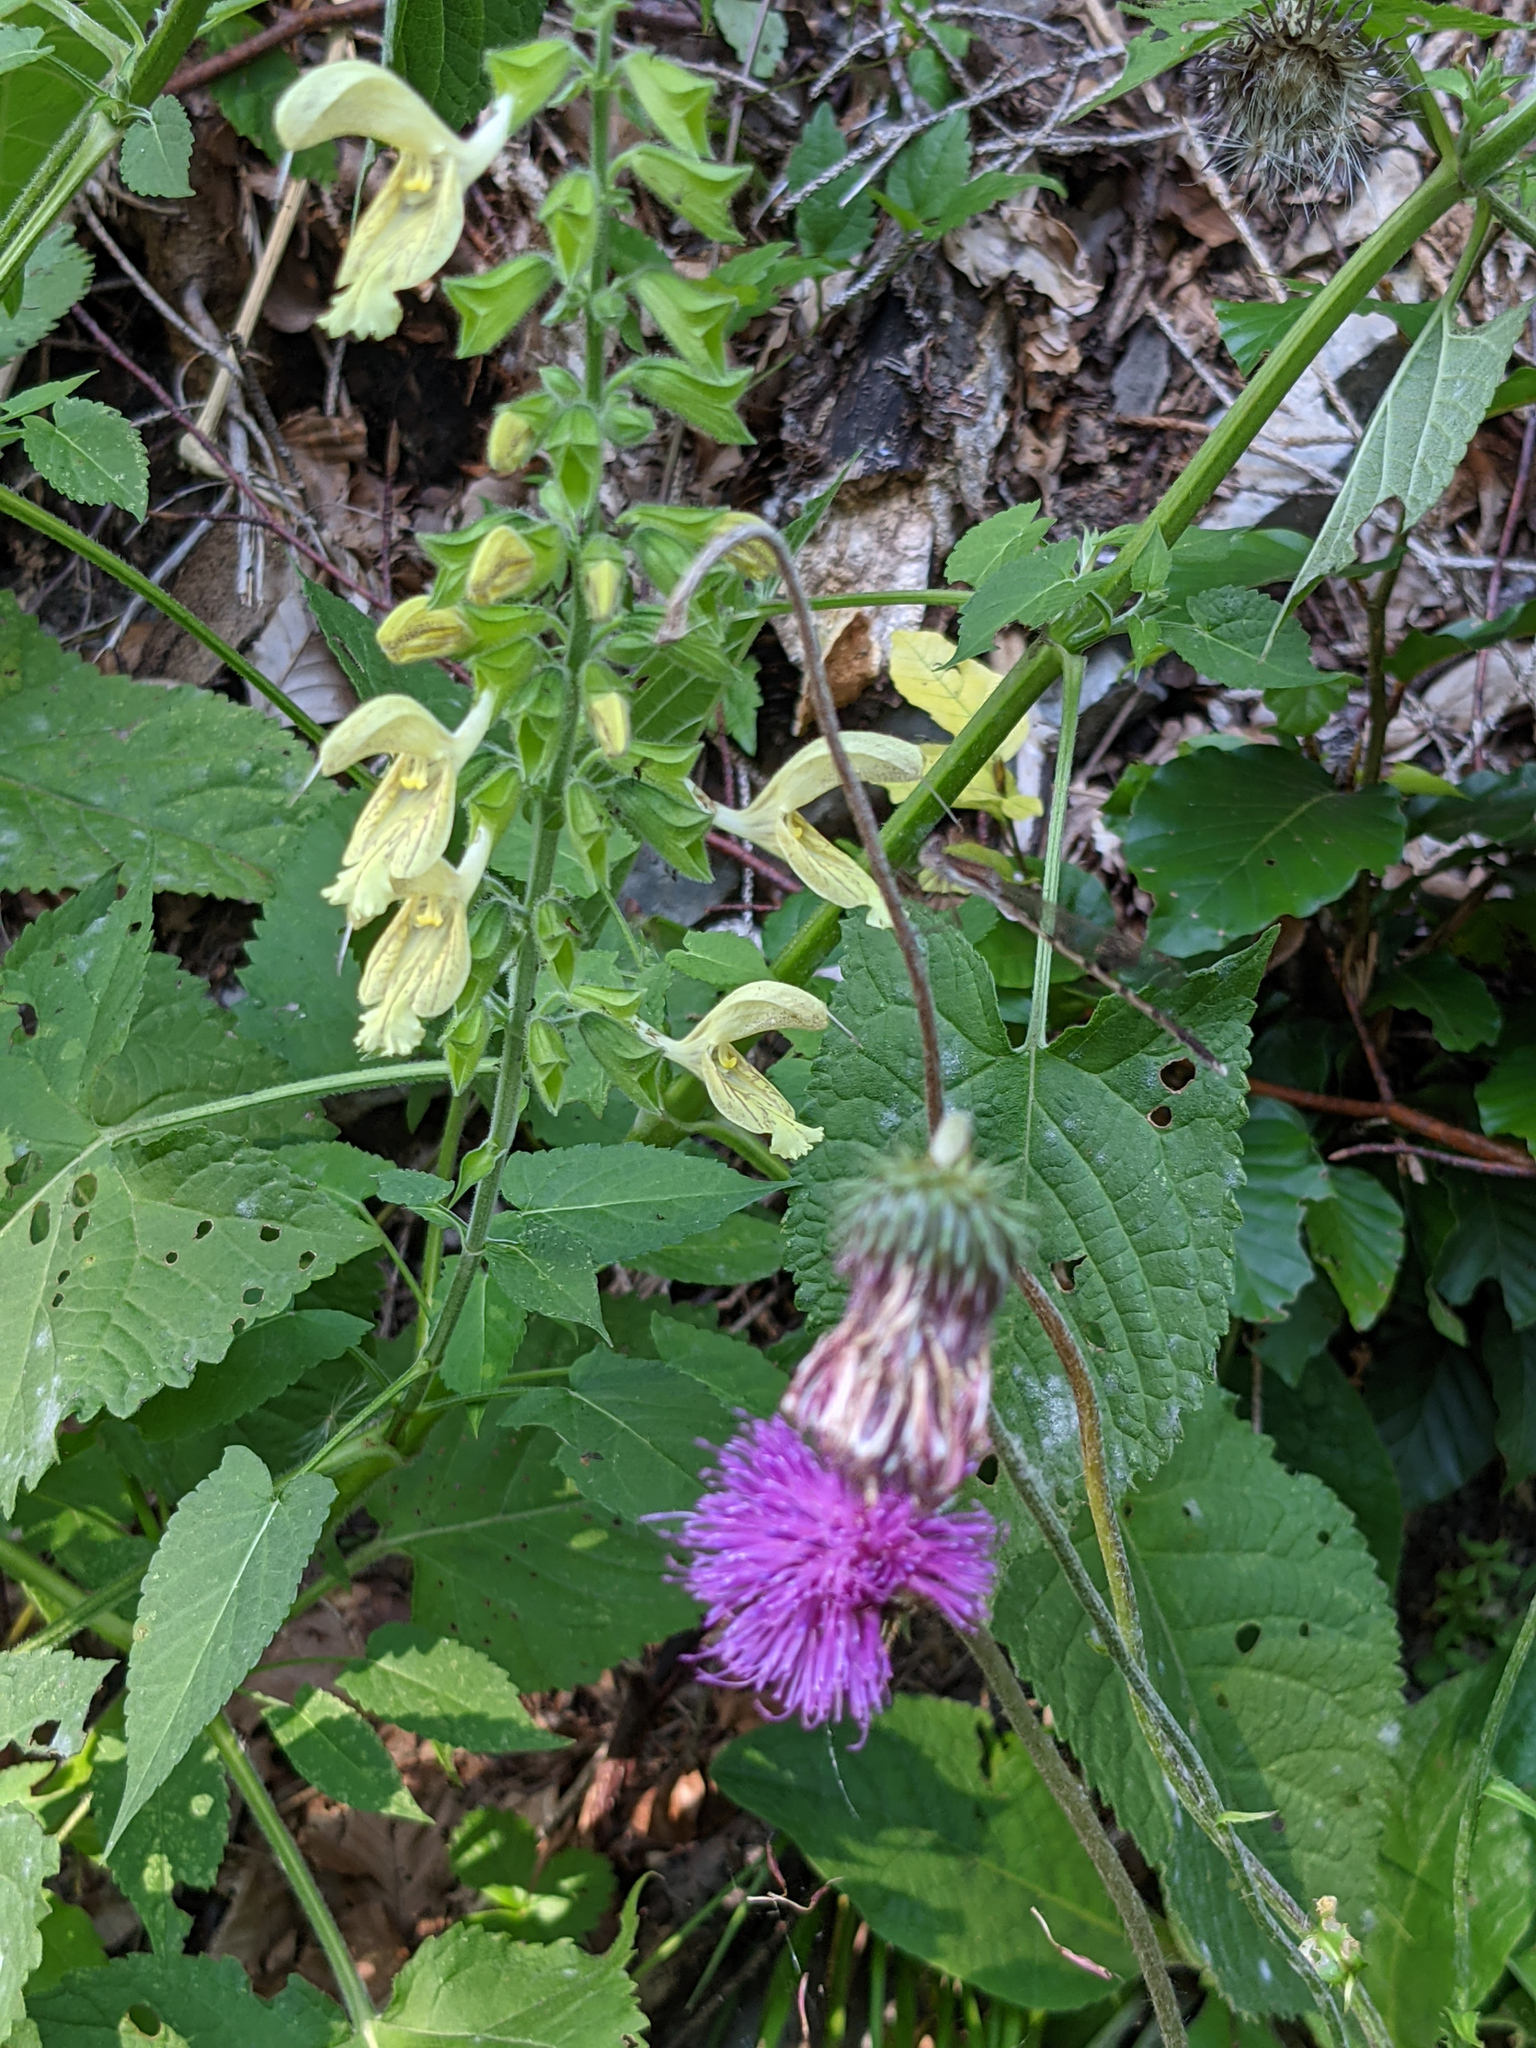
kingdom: Plantae
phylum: Tracheophyta
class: Magnoliopsida
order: Lamiales
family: Lamiaceae
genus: Salvia
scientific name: Salvia glutinosa
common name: Sticky clary
